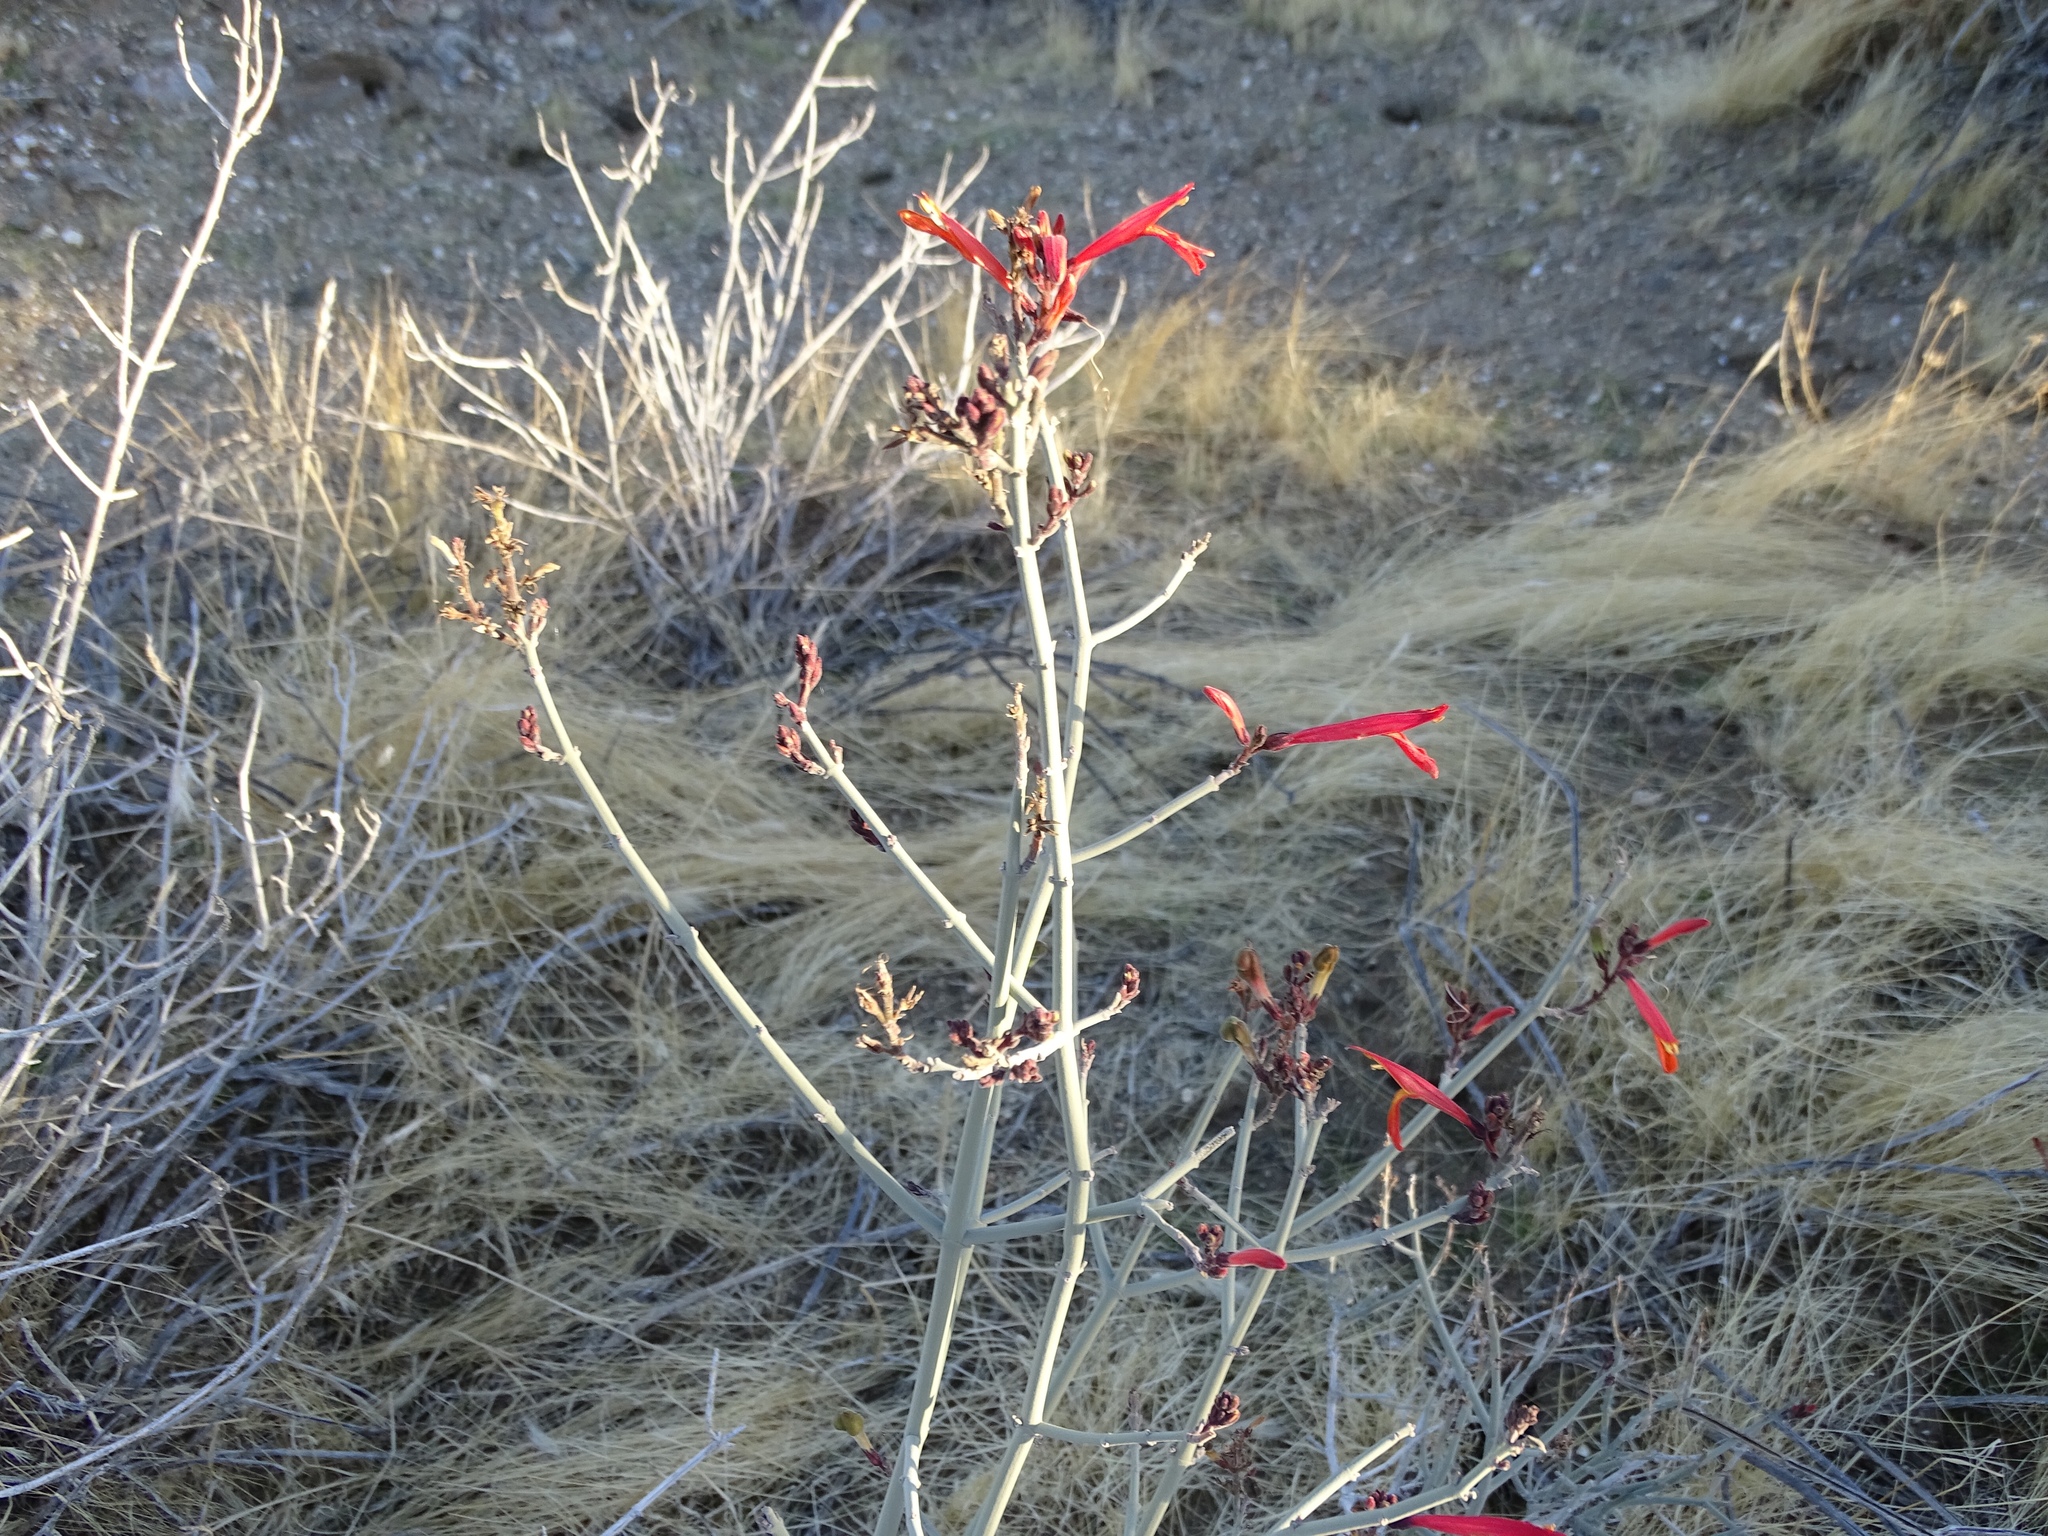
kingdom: Plantae
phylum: Tracheophyta
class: Magnoliopsida
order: Lamiales
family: Acanthaceae
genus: Justicia
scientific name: Justicia californica
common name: Chuparosa-honeysuckle
